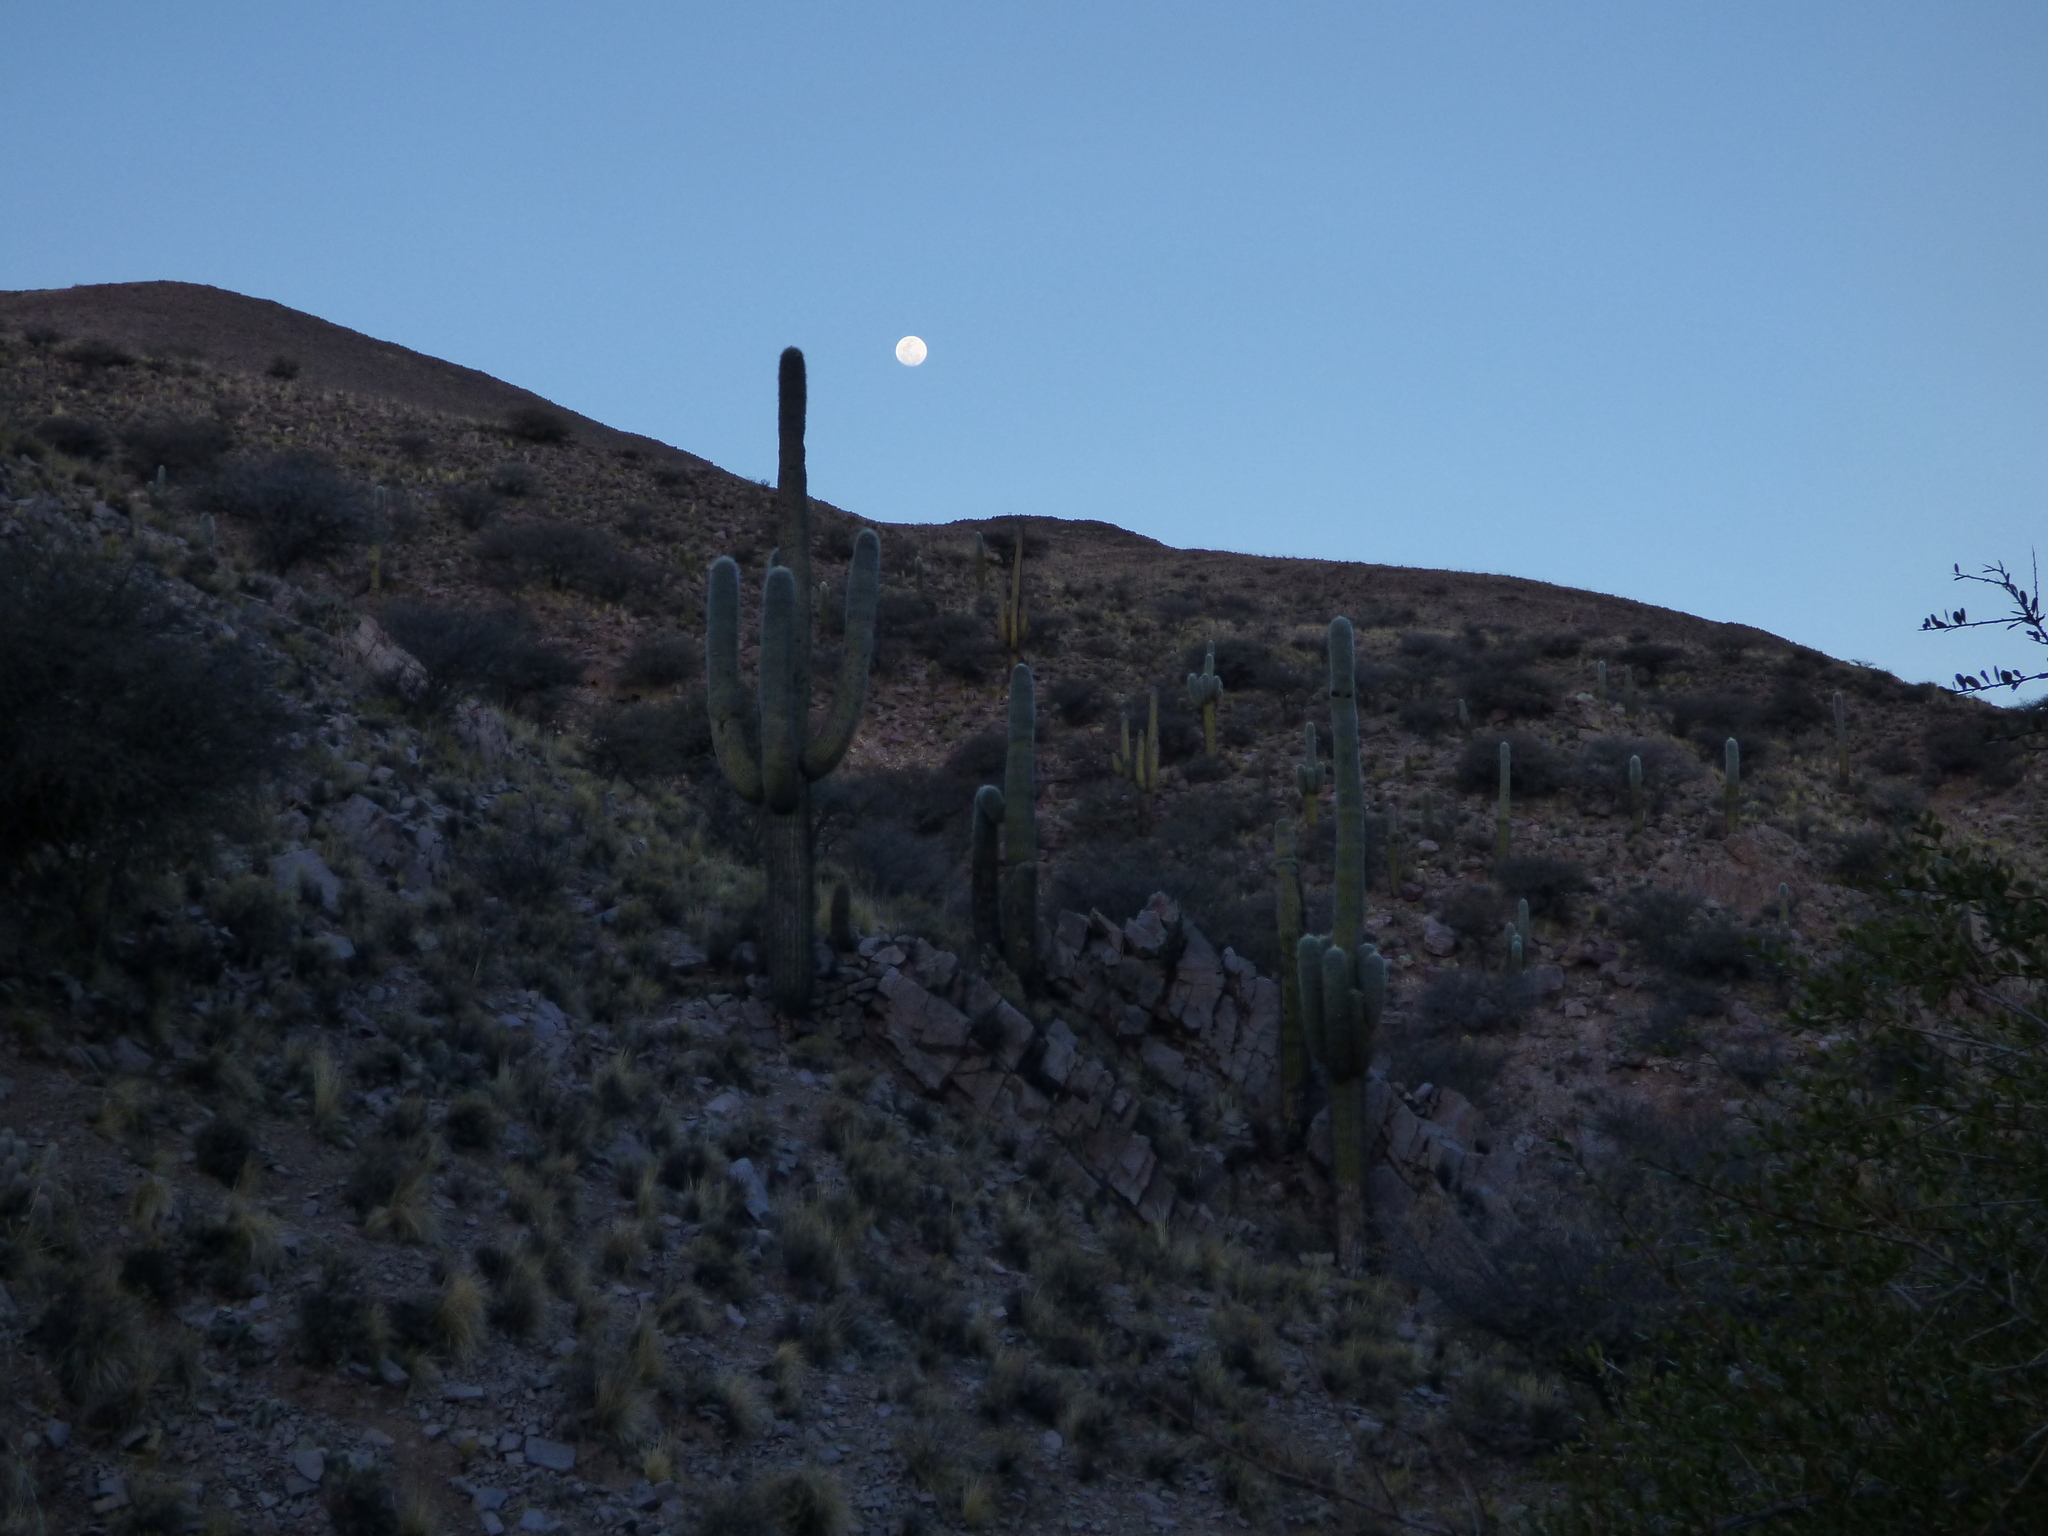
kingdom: Plantae
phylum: Tracheophyta
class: Magnoliopsida
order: Caryophyllales
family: Cactaceae
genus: Leucostele
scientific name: Leucostele atacamensis
